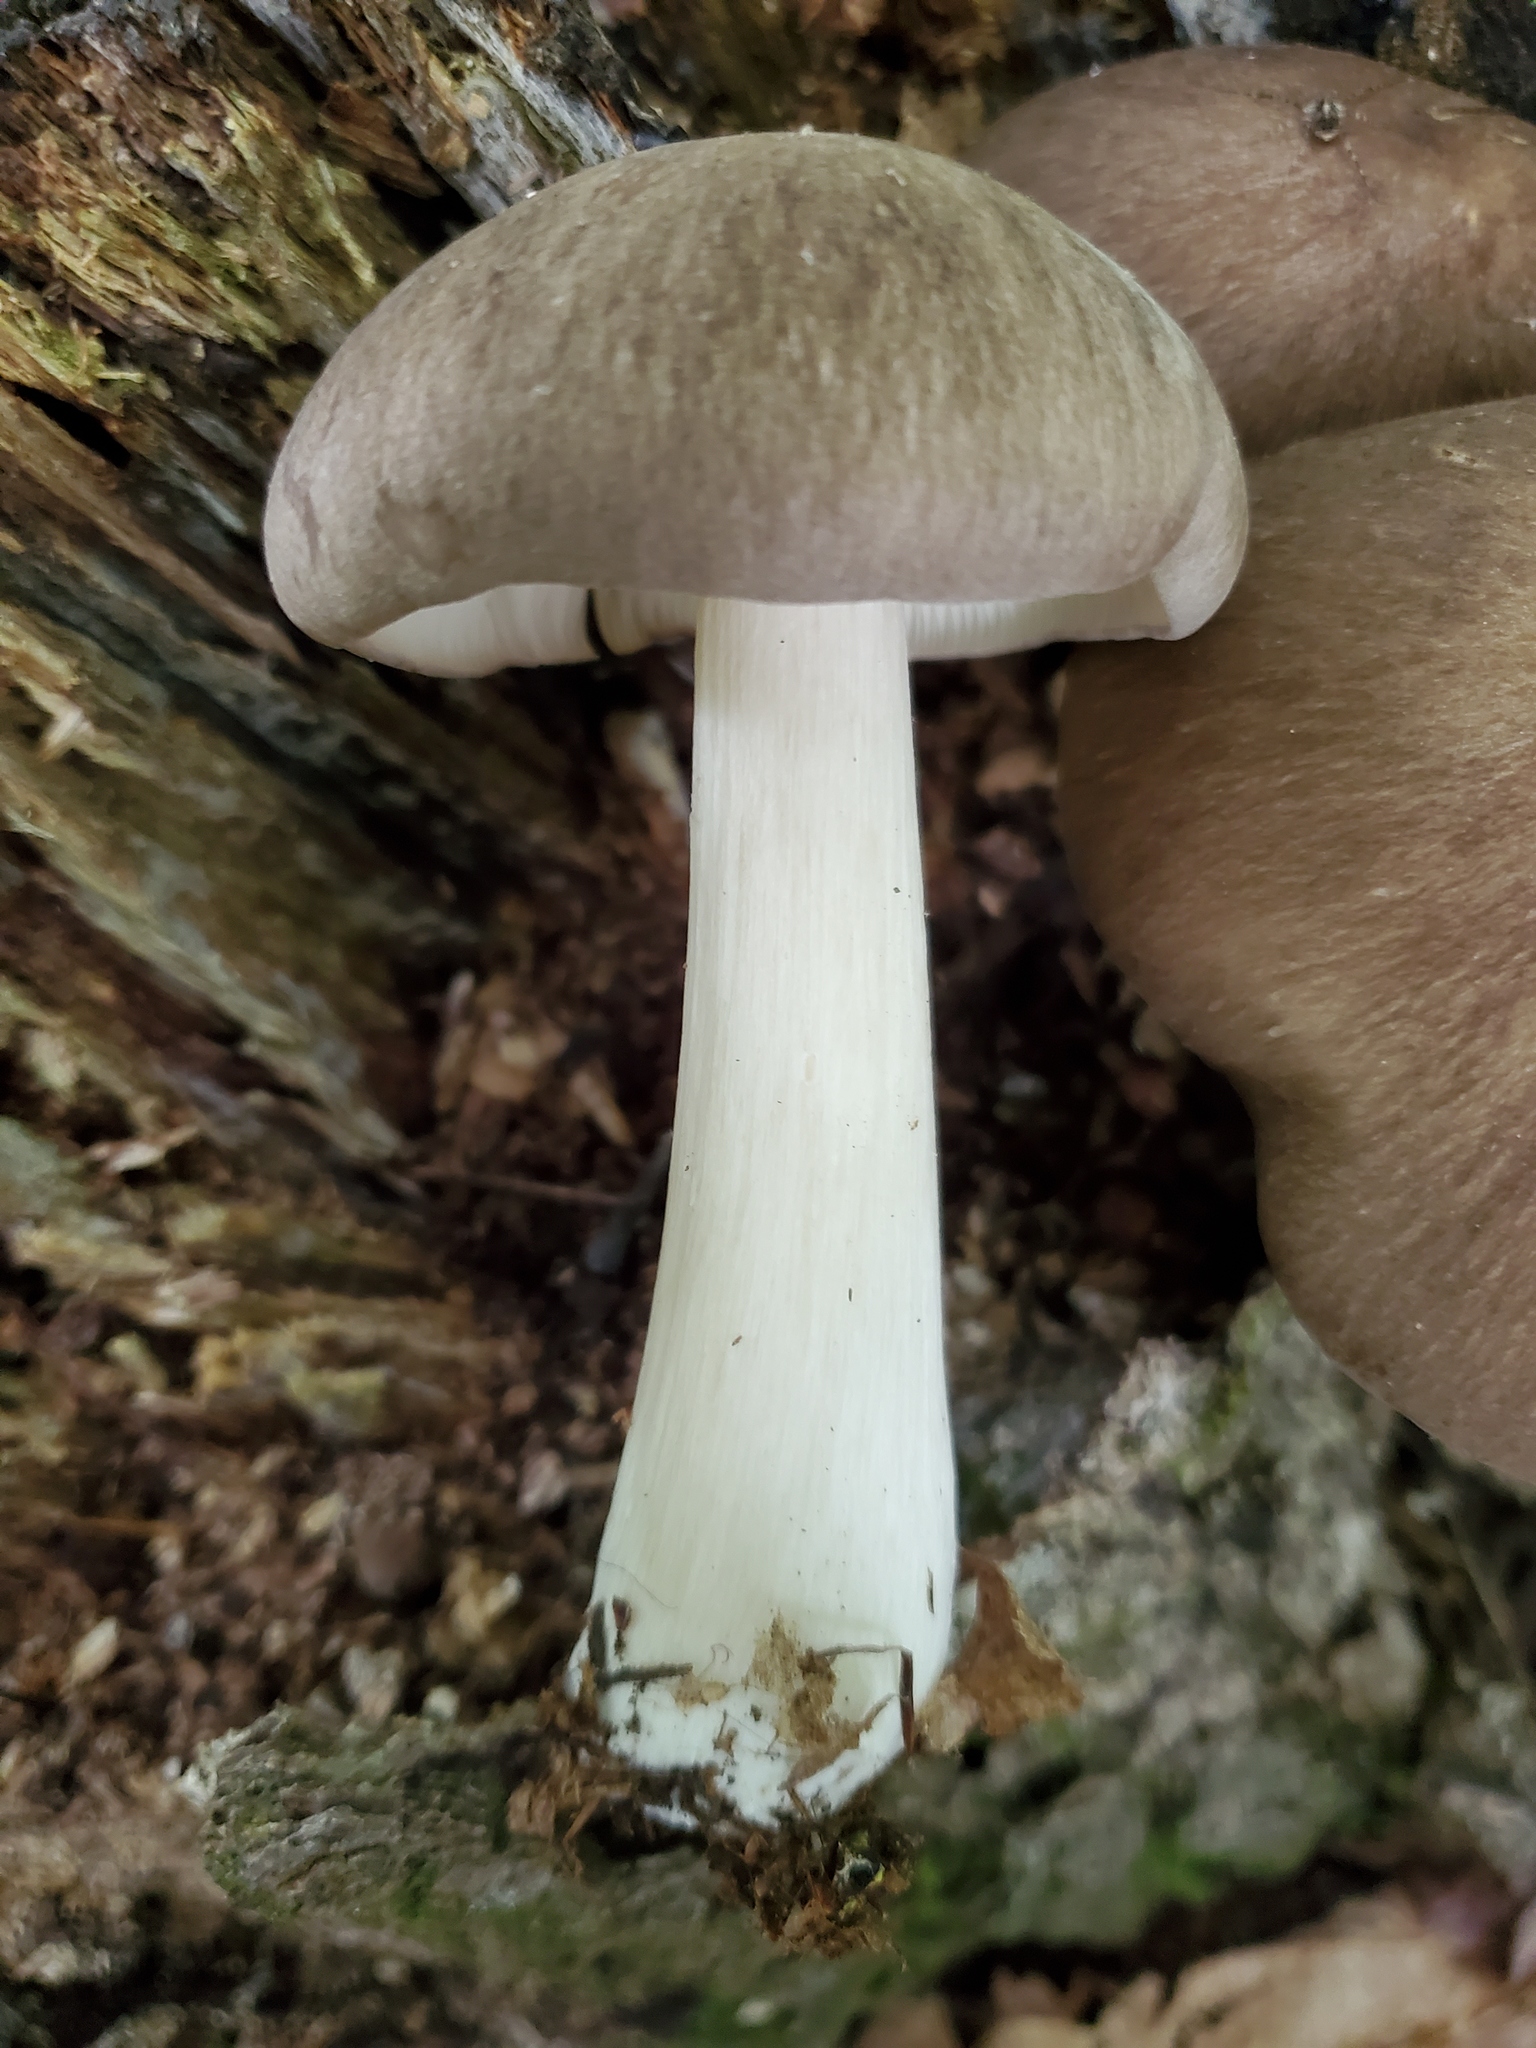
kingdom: Fungi
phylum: Basidiomycota
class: Agaricomycetes
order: Agaricales
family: Tricholomataceae
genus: Megacollybia
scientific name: Megacollybia rodmanii
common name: Eastern american platterful mushroom
